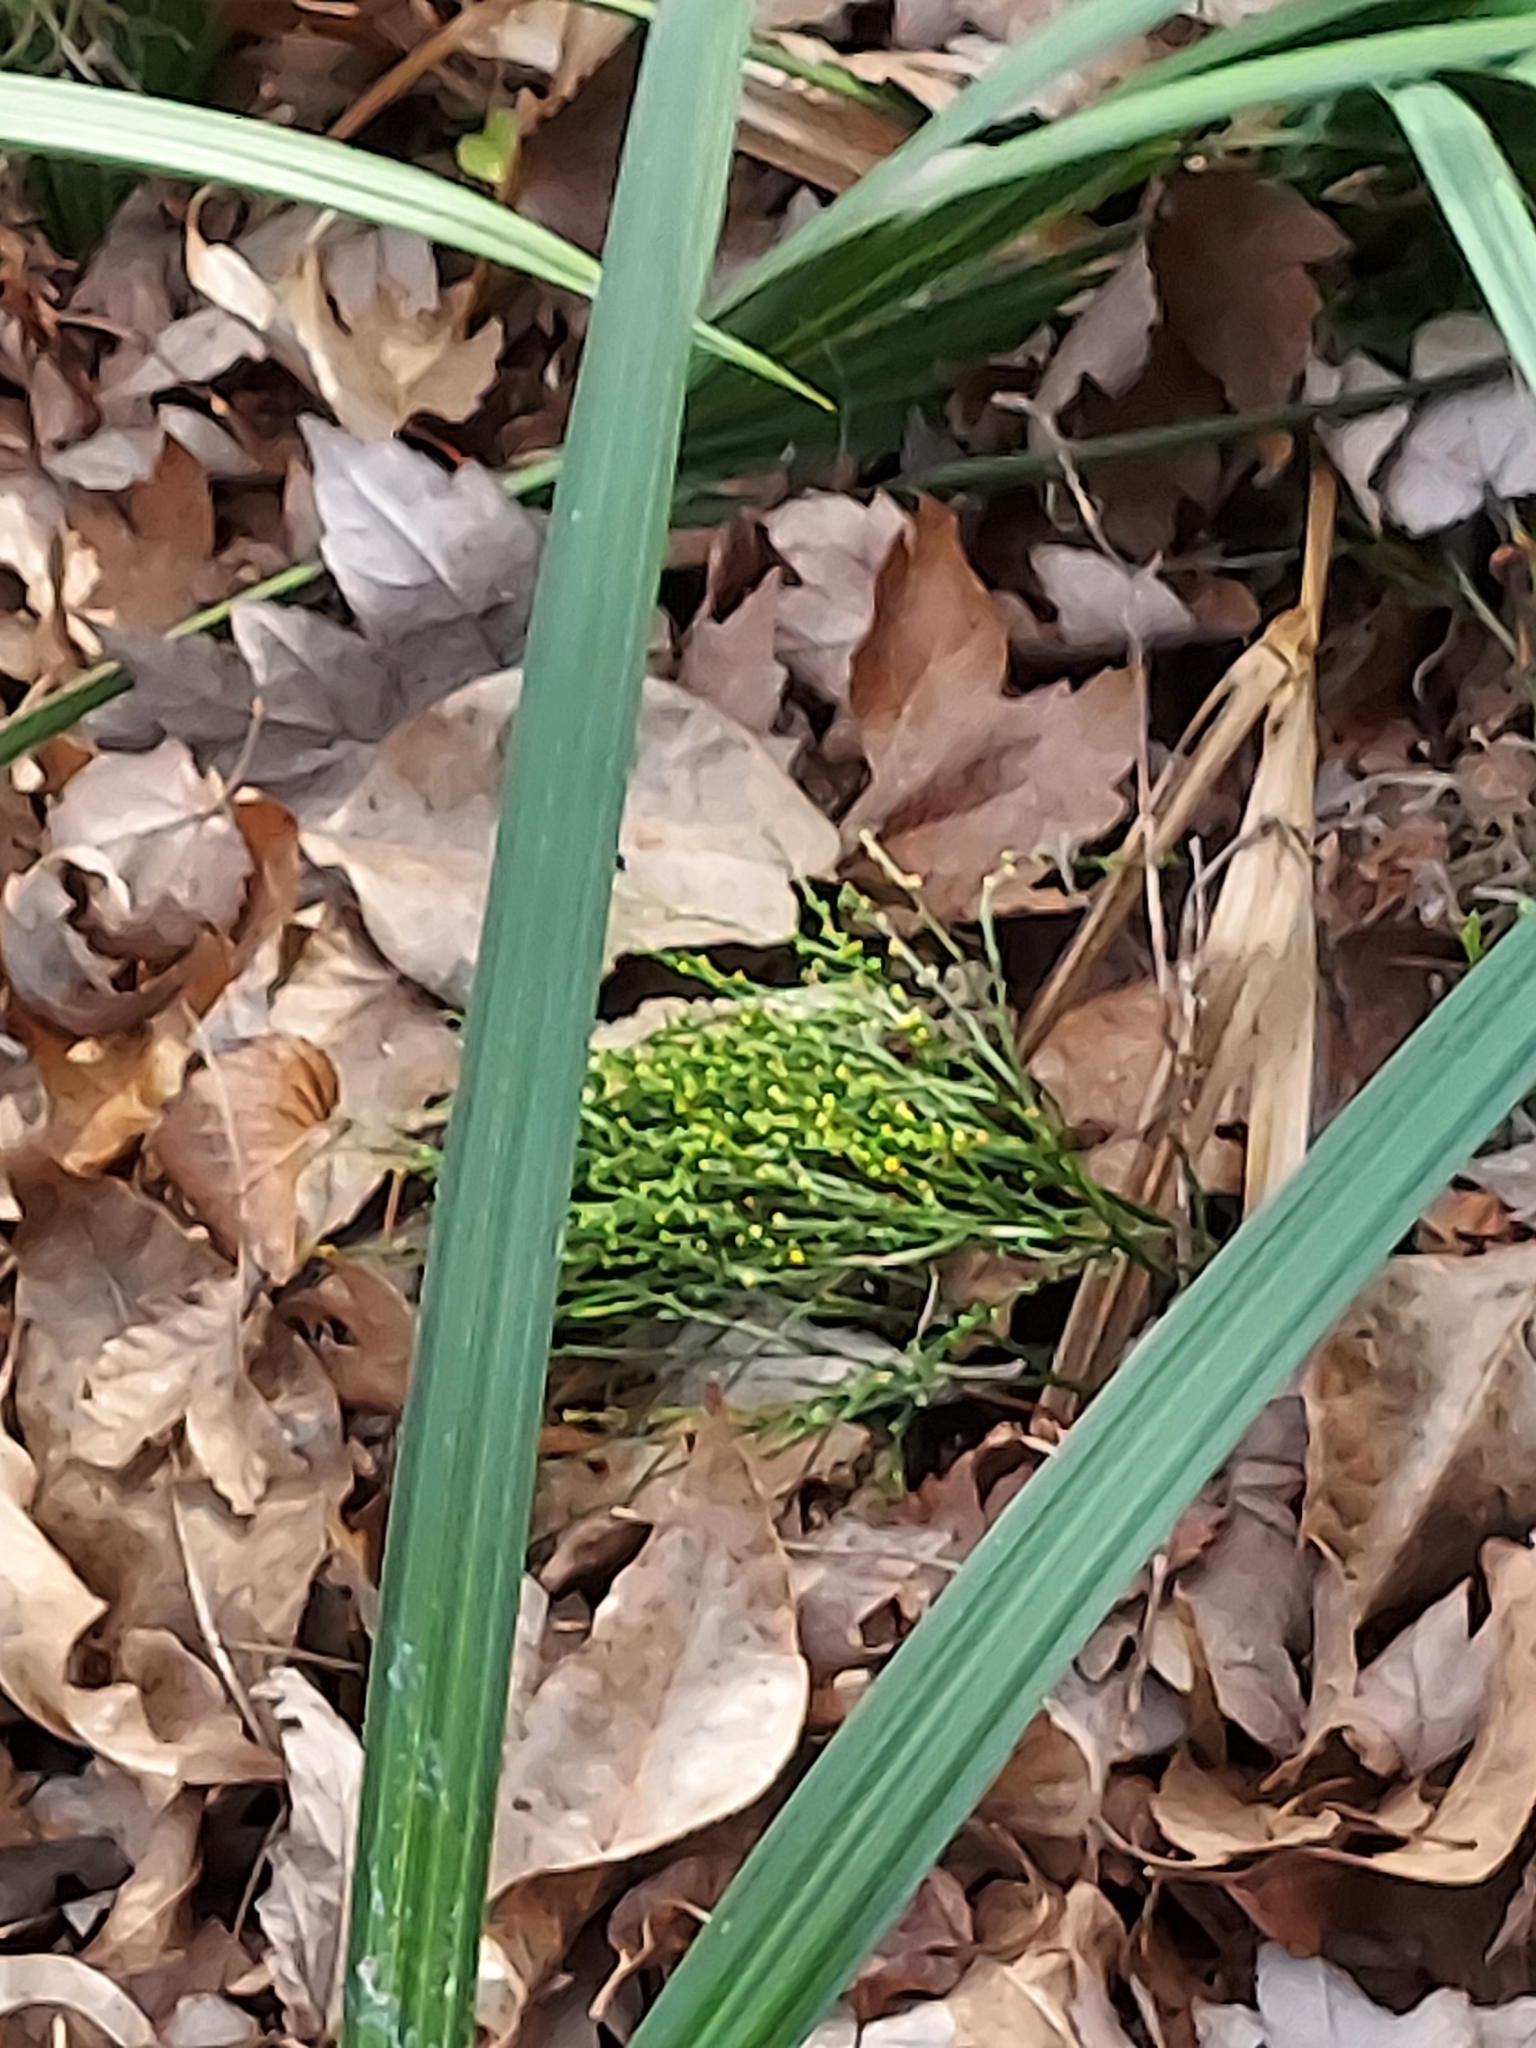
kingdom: Plantae
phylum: Tracheophyta
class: Polypodiopsida
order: Psilotales
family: Psilotaceae
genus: Psilotum
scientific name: Psilotum nudum
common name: Skeleton fork fern
